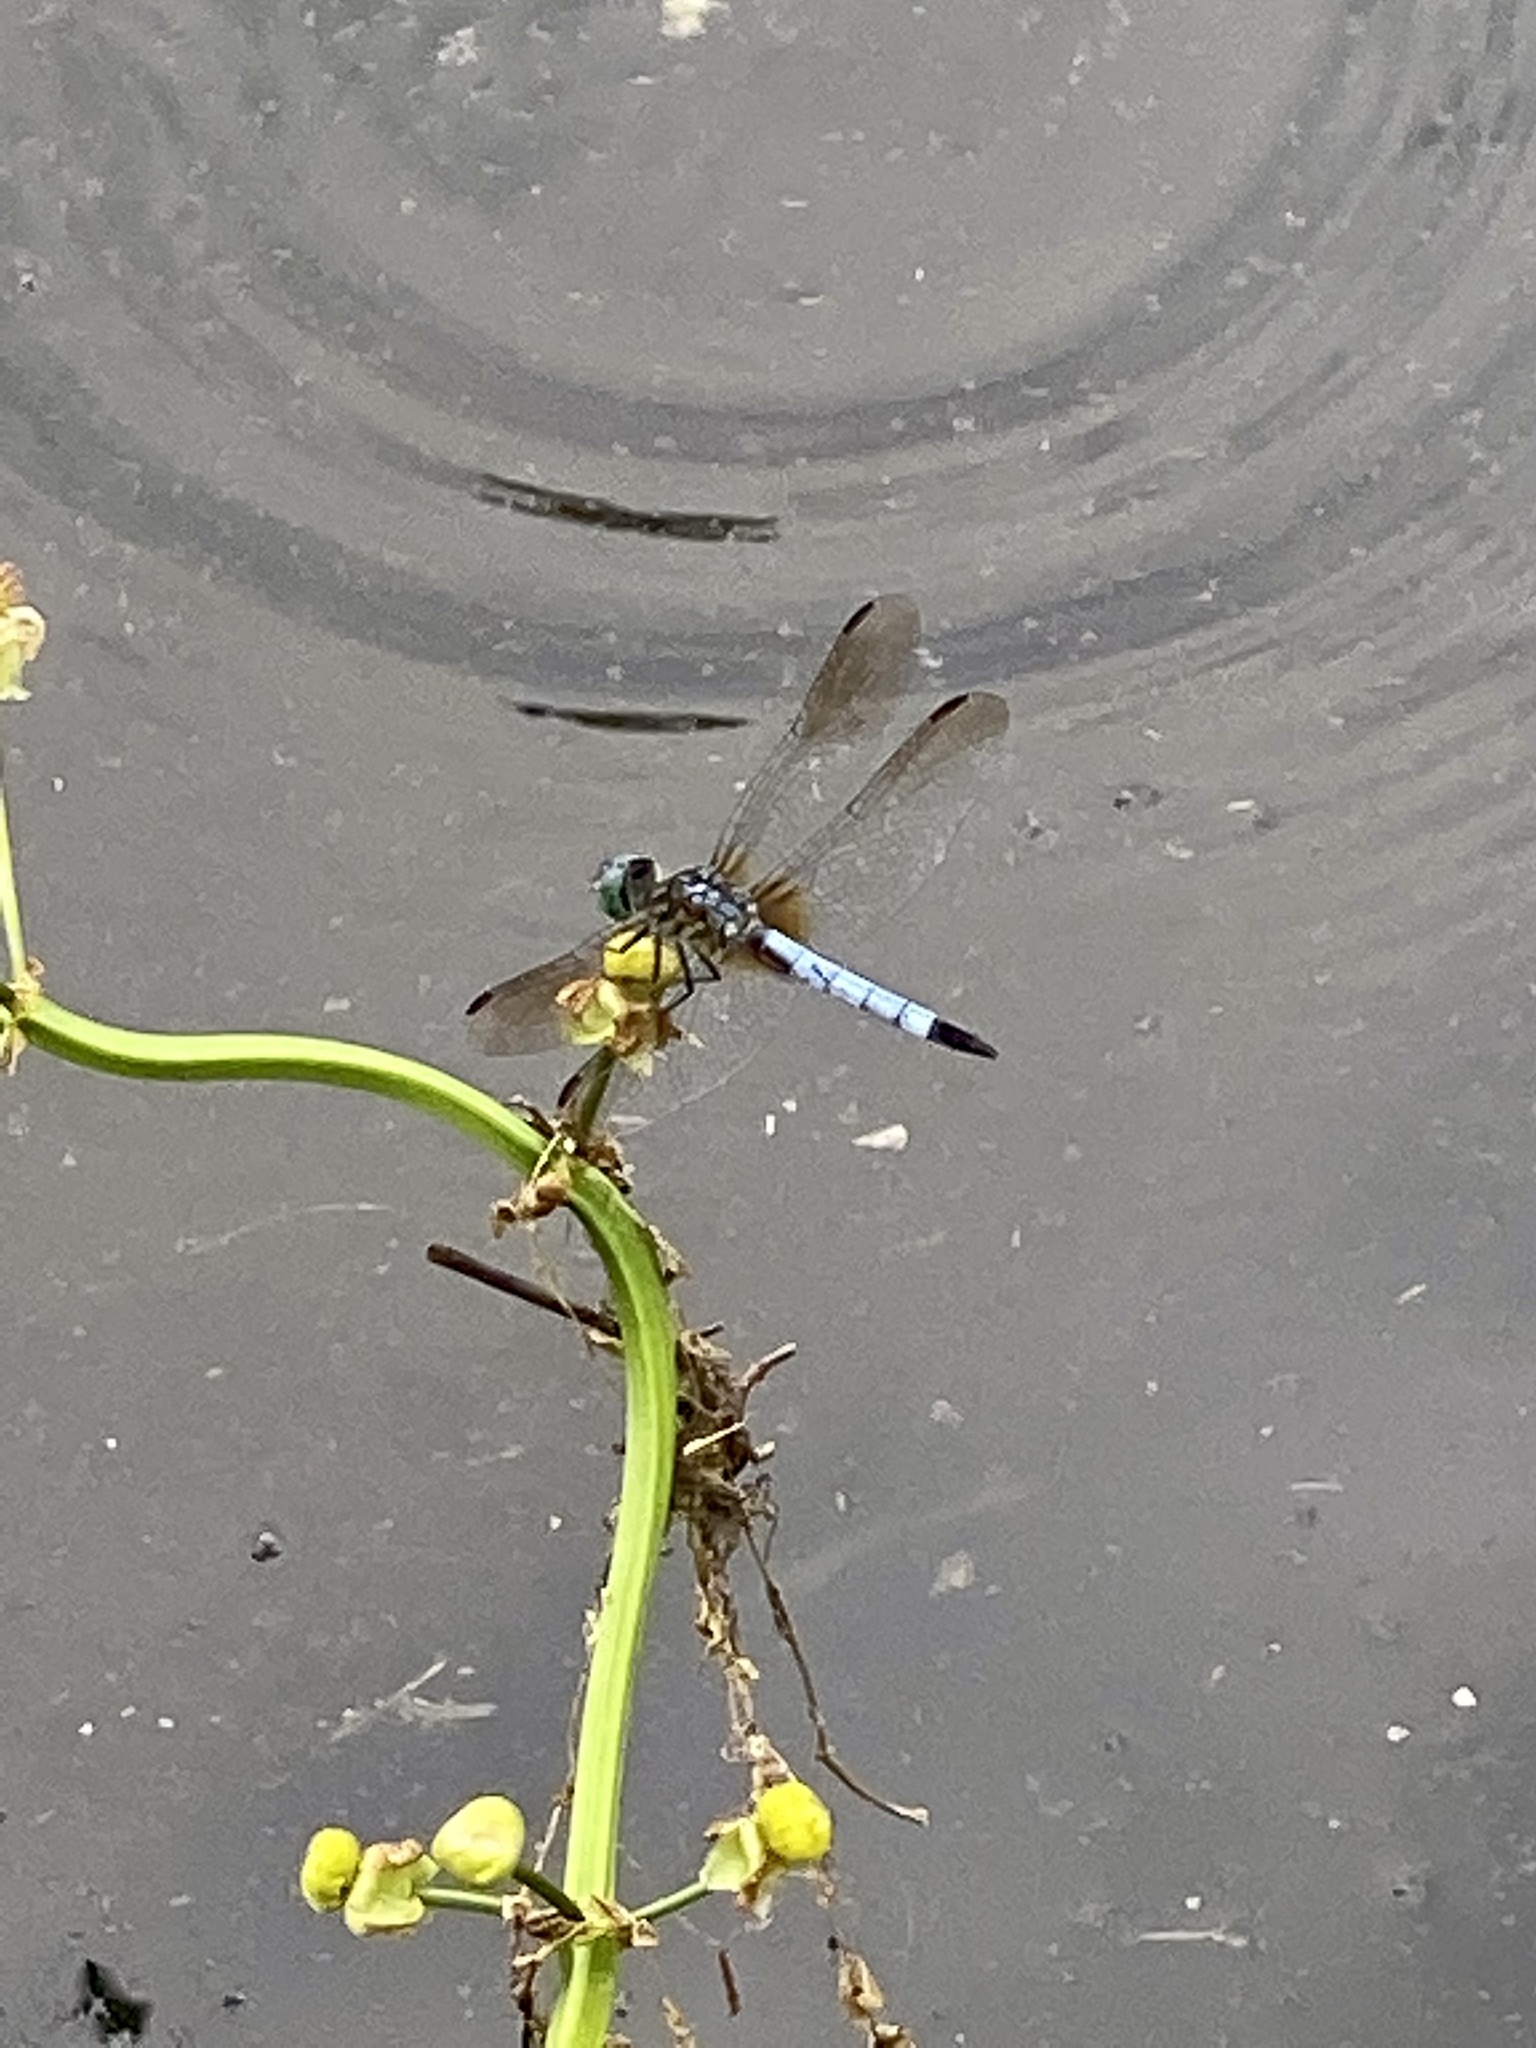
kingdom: Animalia
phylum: Arthropoda
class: Insecta
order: Odonata
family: Libellulidae
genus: Pachydiplax
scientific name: Pachydiplax longipennis
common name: Blue dasher
